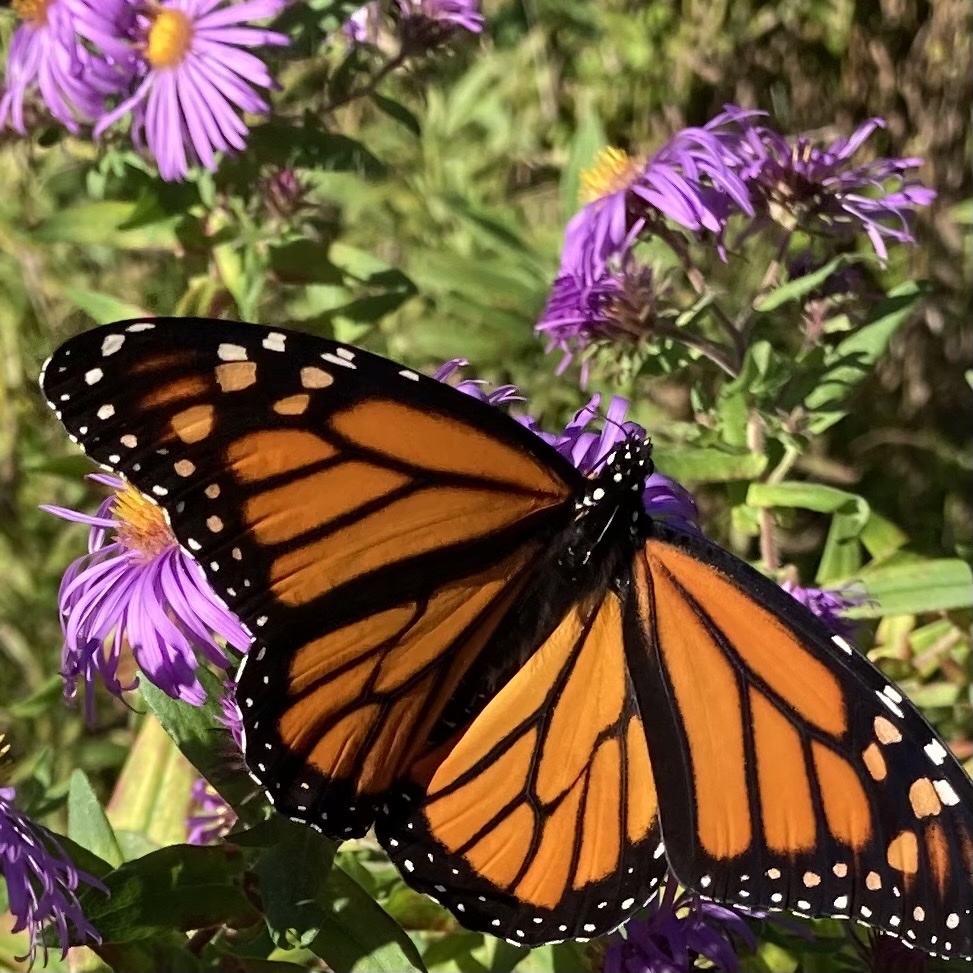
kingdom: Animalia
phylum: Arthropoda
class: Insecta
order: Lepidoptera
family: Nymphalidae
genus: Danaus
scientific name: Danaus plexippus
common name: Monarch
